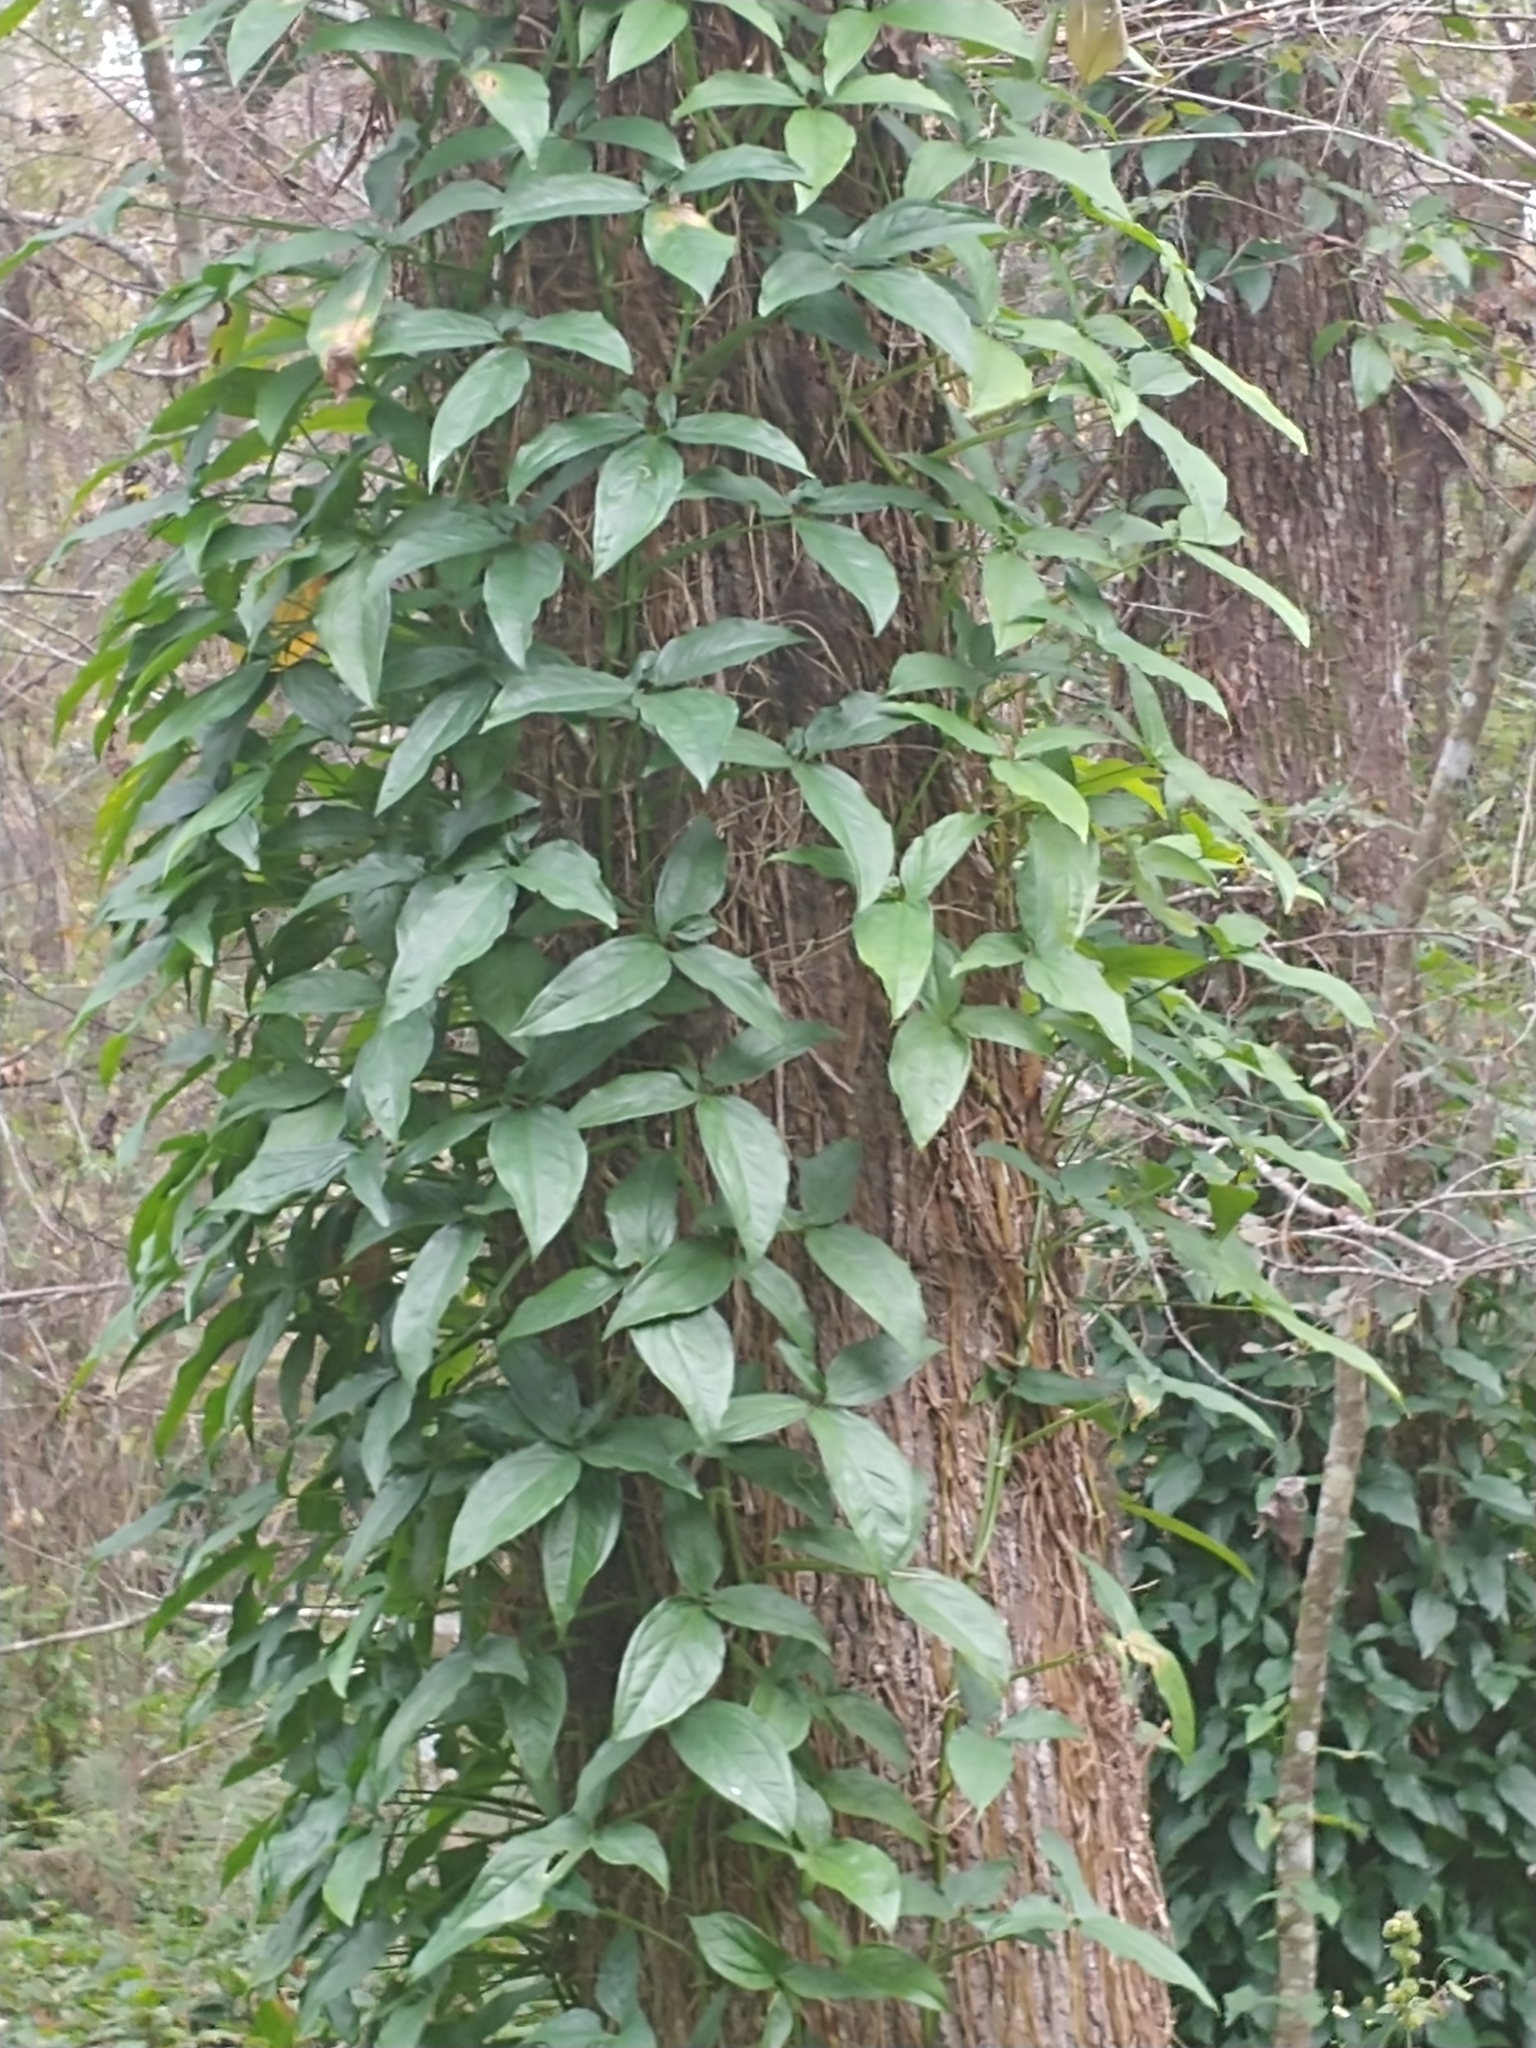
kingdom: Plantae
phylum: Tracheophyta
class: Liliopsida
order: Alismatales
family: Araceae
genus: Syngonium
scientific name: Syngonium podophyllum
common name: American evergreen
